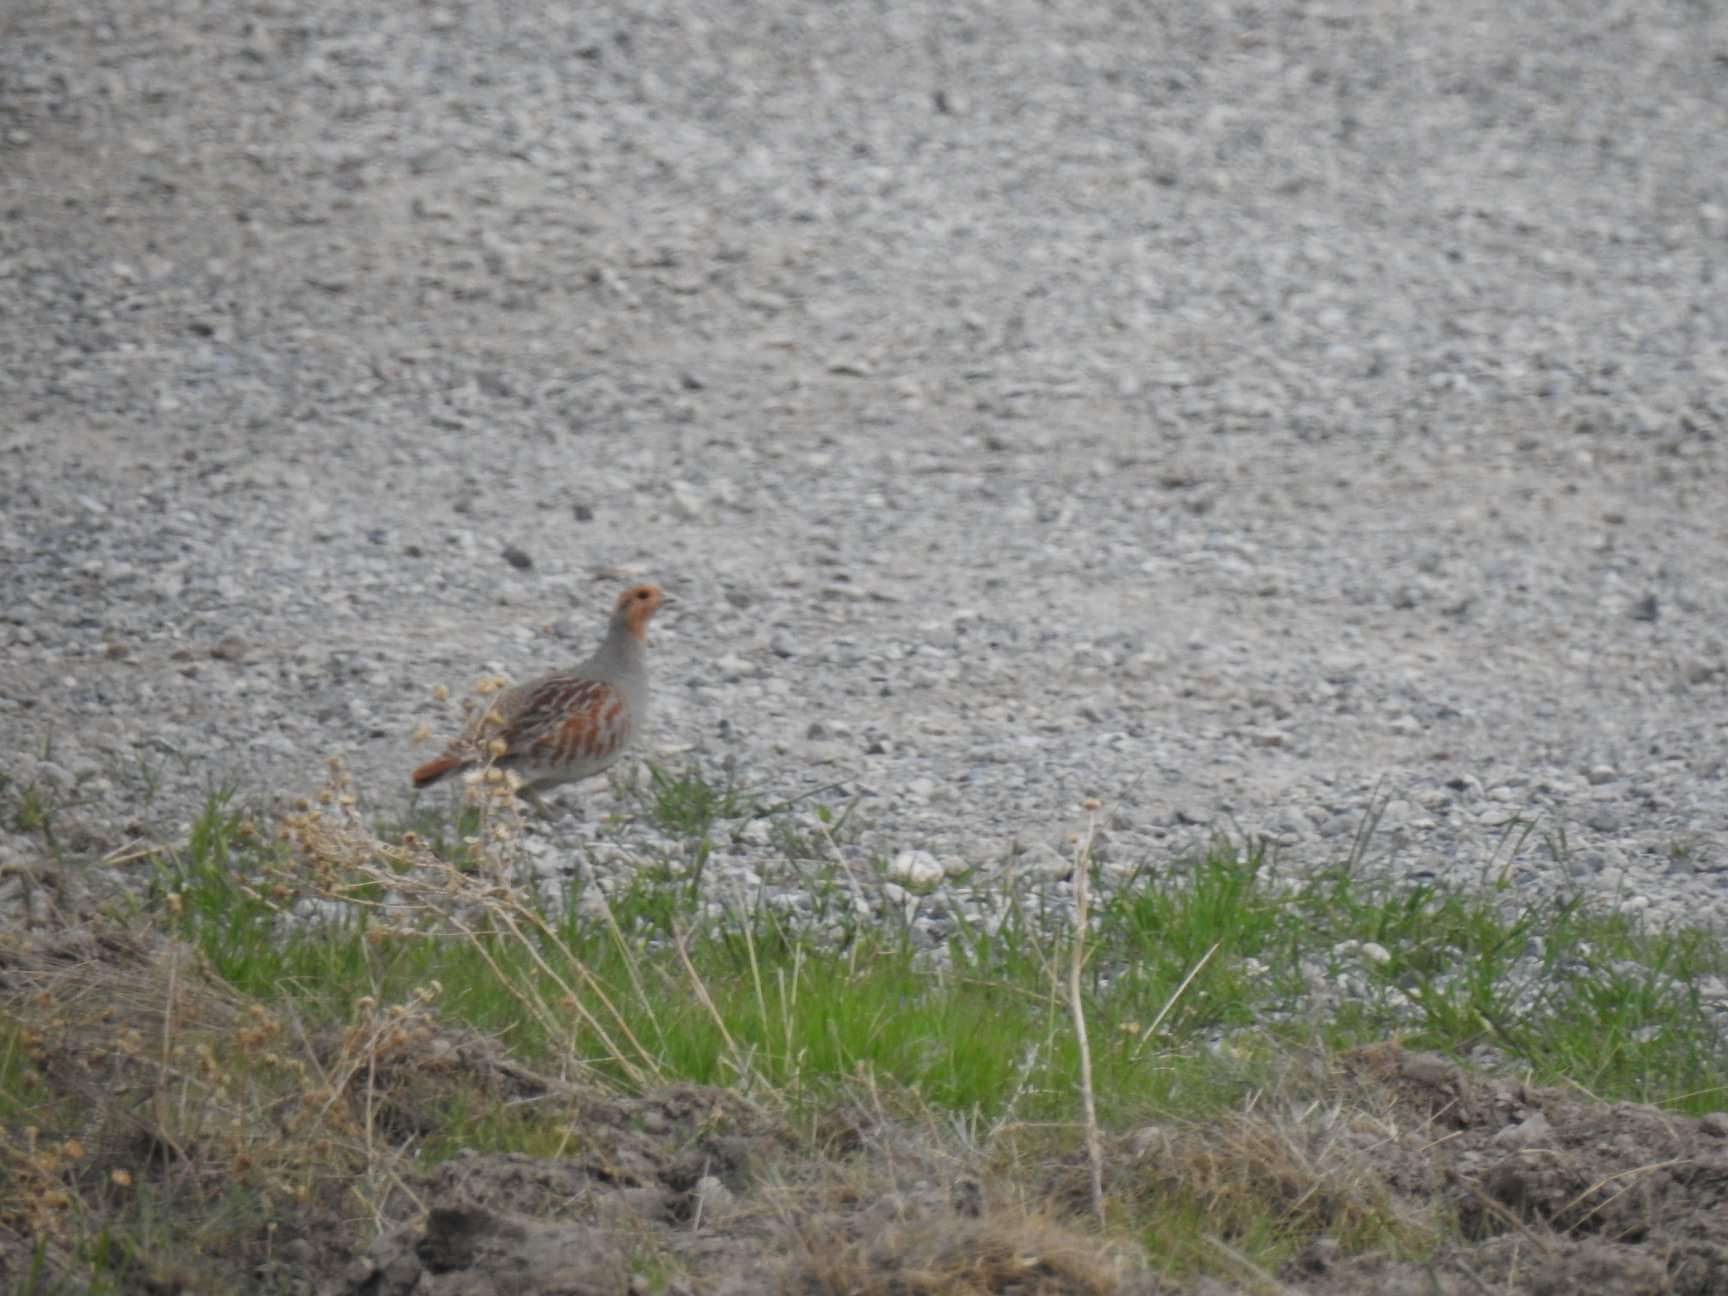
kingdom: Animalia
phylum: Chordata
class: Aves
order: Galliformes
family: Phasianidae
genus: Perdix
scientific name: Perdix perdix
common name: Grey partridge
